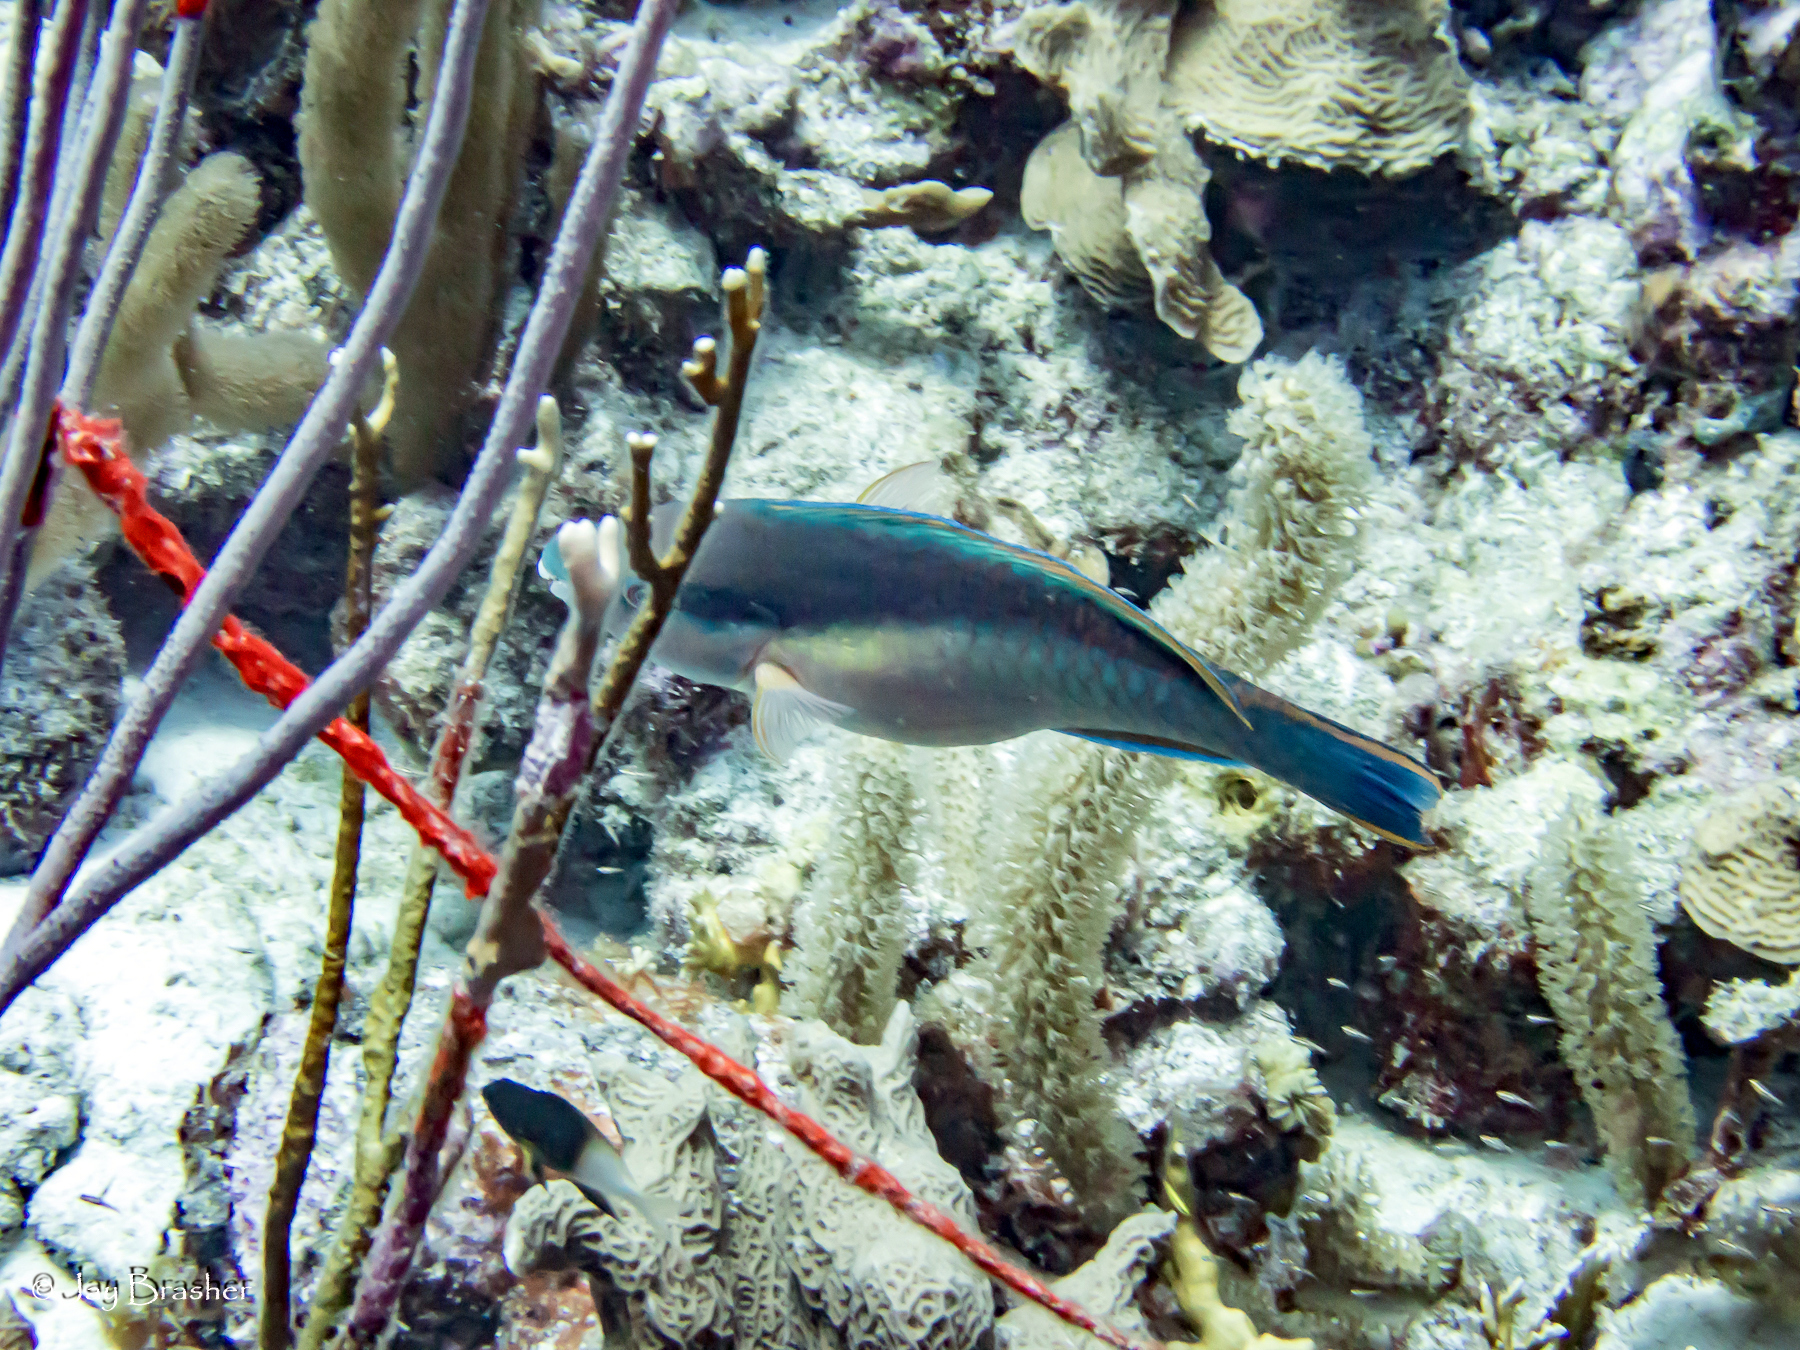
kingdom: Animalia
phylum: Chordata
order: Perciformes
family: Scaridae
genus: Scarus
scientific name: Scarus taeniopterus
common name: Princess parrotfish
